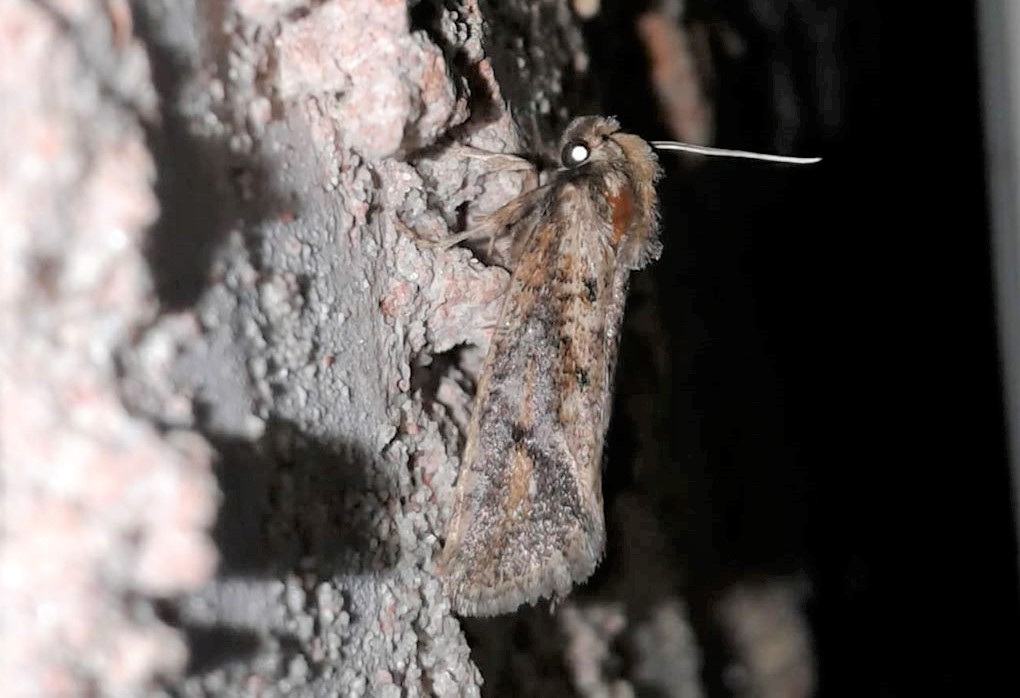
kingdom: Animalia
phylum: Arthropoda
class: Insecta
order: Lepidoptera
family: Tineidae
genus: Acrolophus
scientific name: Acrolophus popeanella
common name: Clemens' grass tubeworm moth
